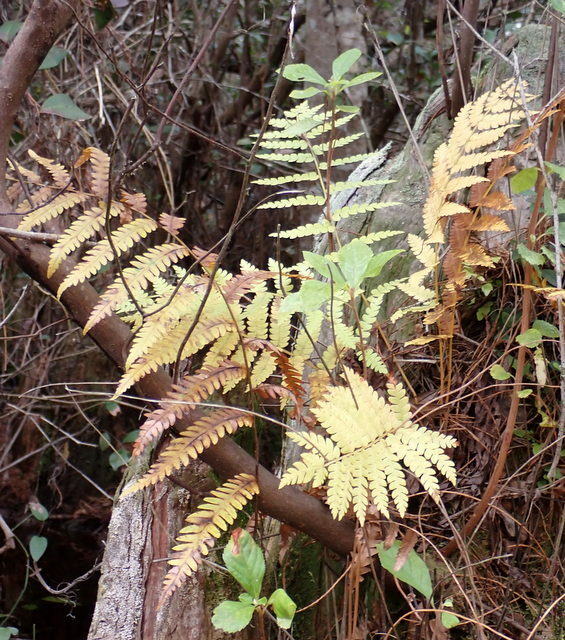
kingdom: Plantae
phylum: Tracheophyta
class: Polypodiopsida
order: Polypodiales
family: Blechnaceae
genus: Anchistea
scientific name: Anchistea virginica
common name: Virginia chain fern
